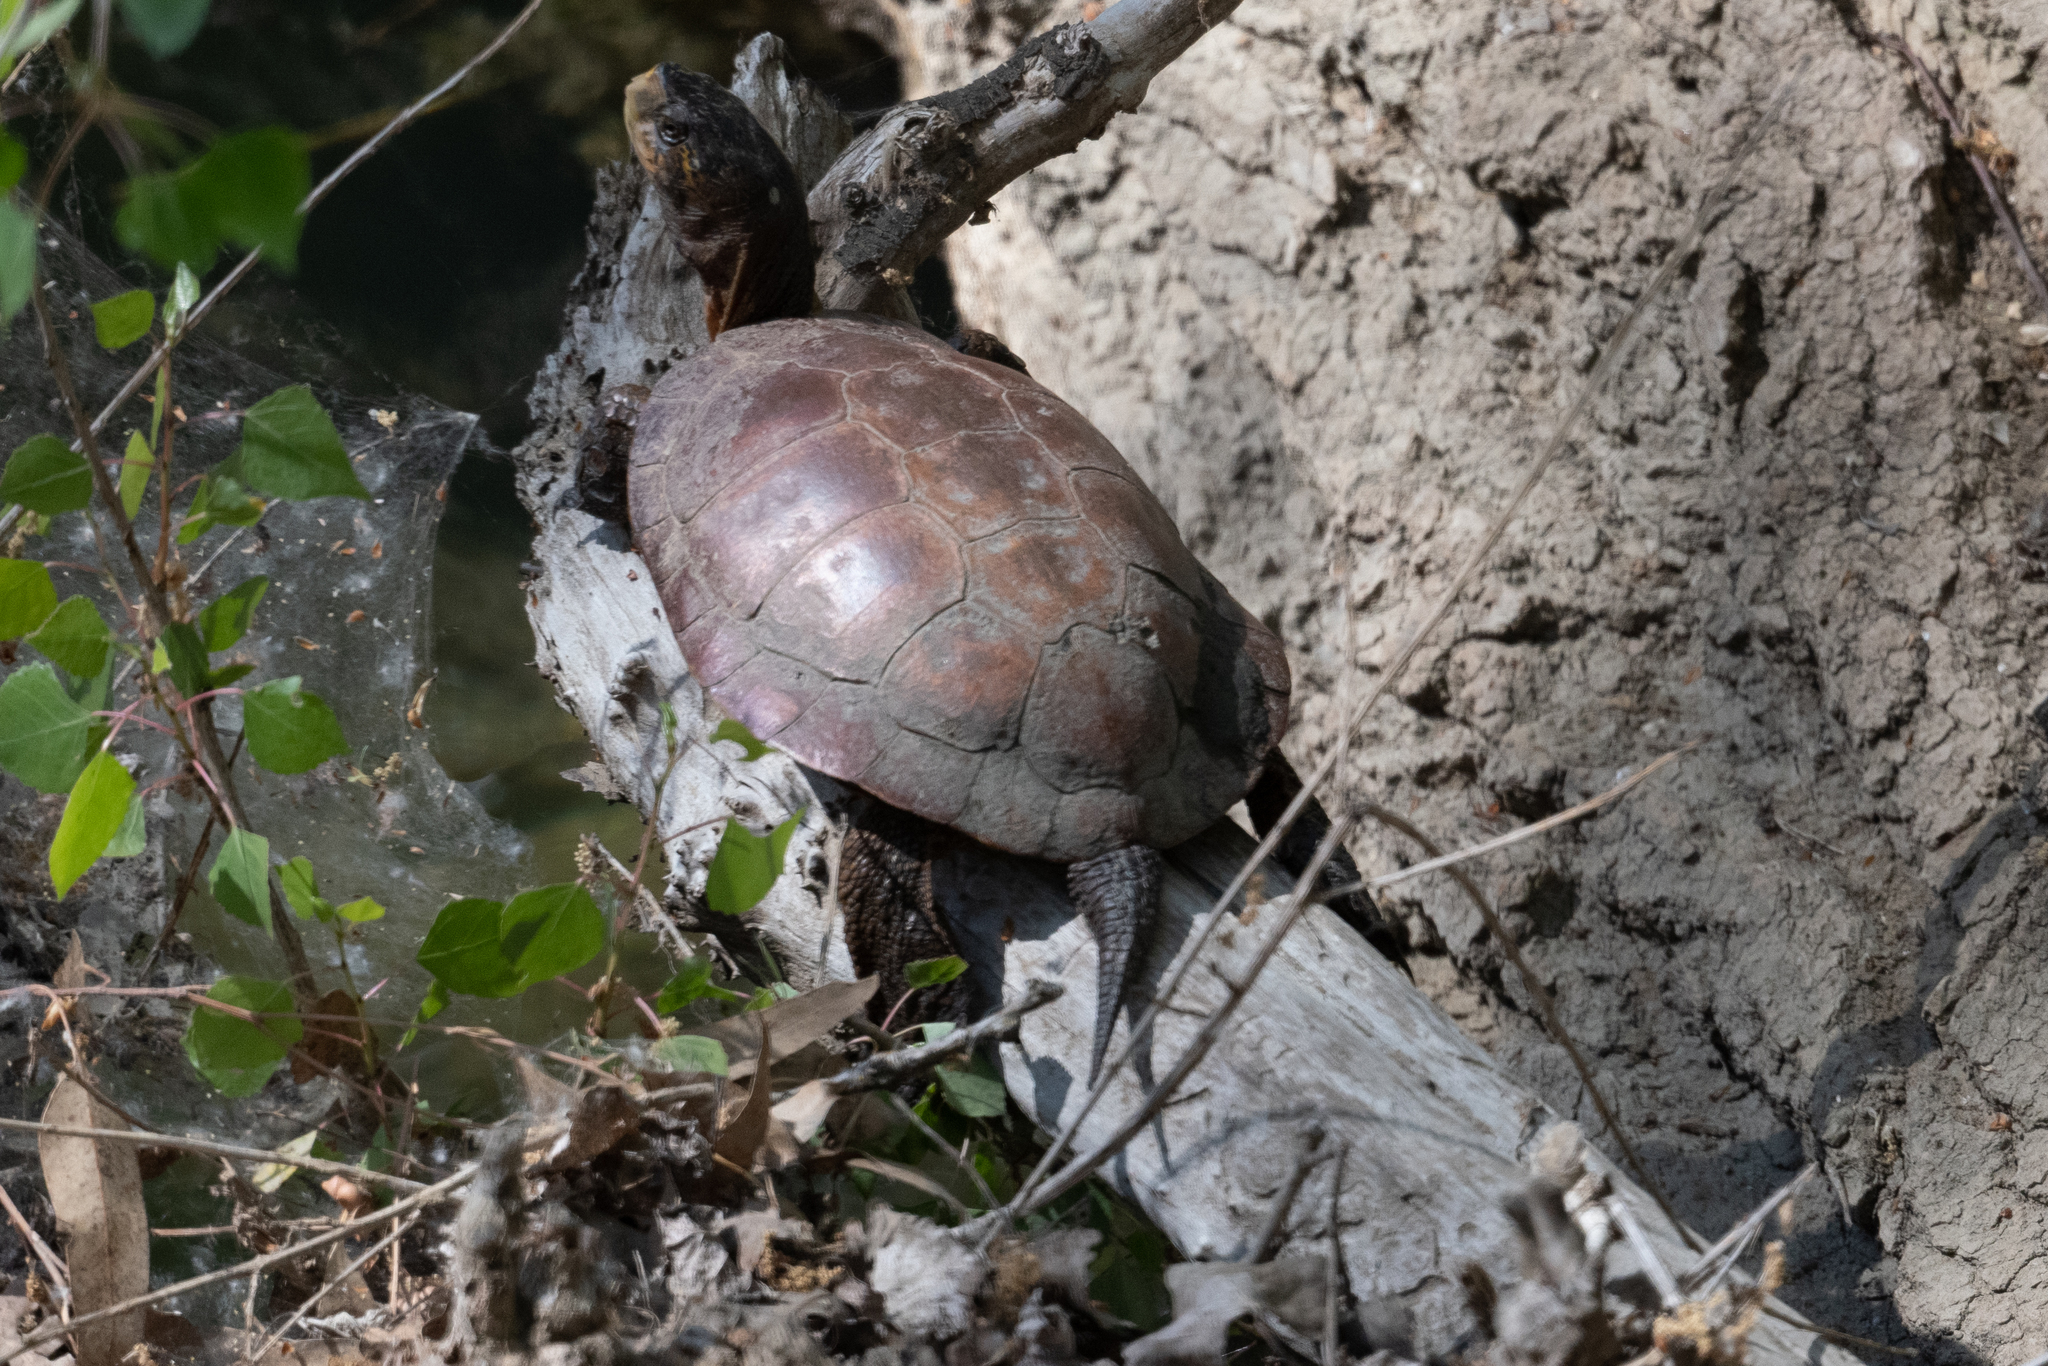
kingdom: Animalia
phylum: Chordata
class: Testudines
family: Emydidae
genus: Actinemys
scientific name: Actinemys marmorata
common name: Western pond turtle
